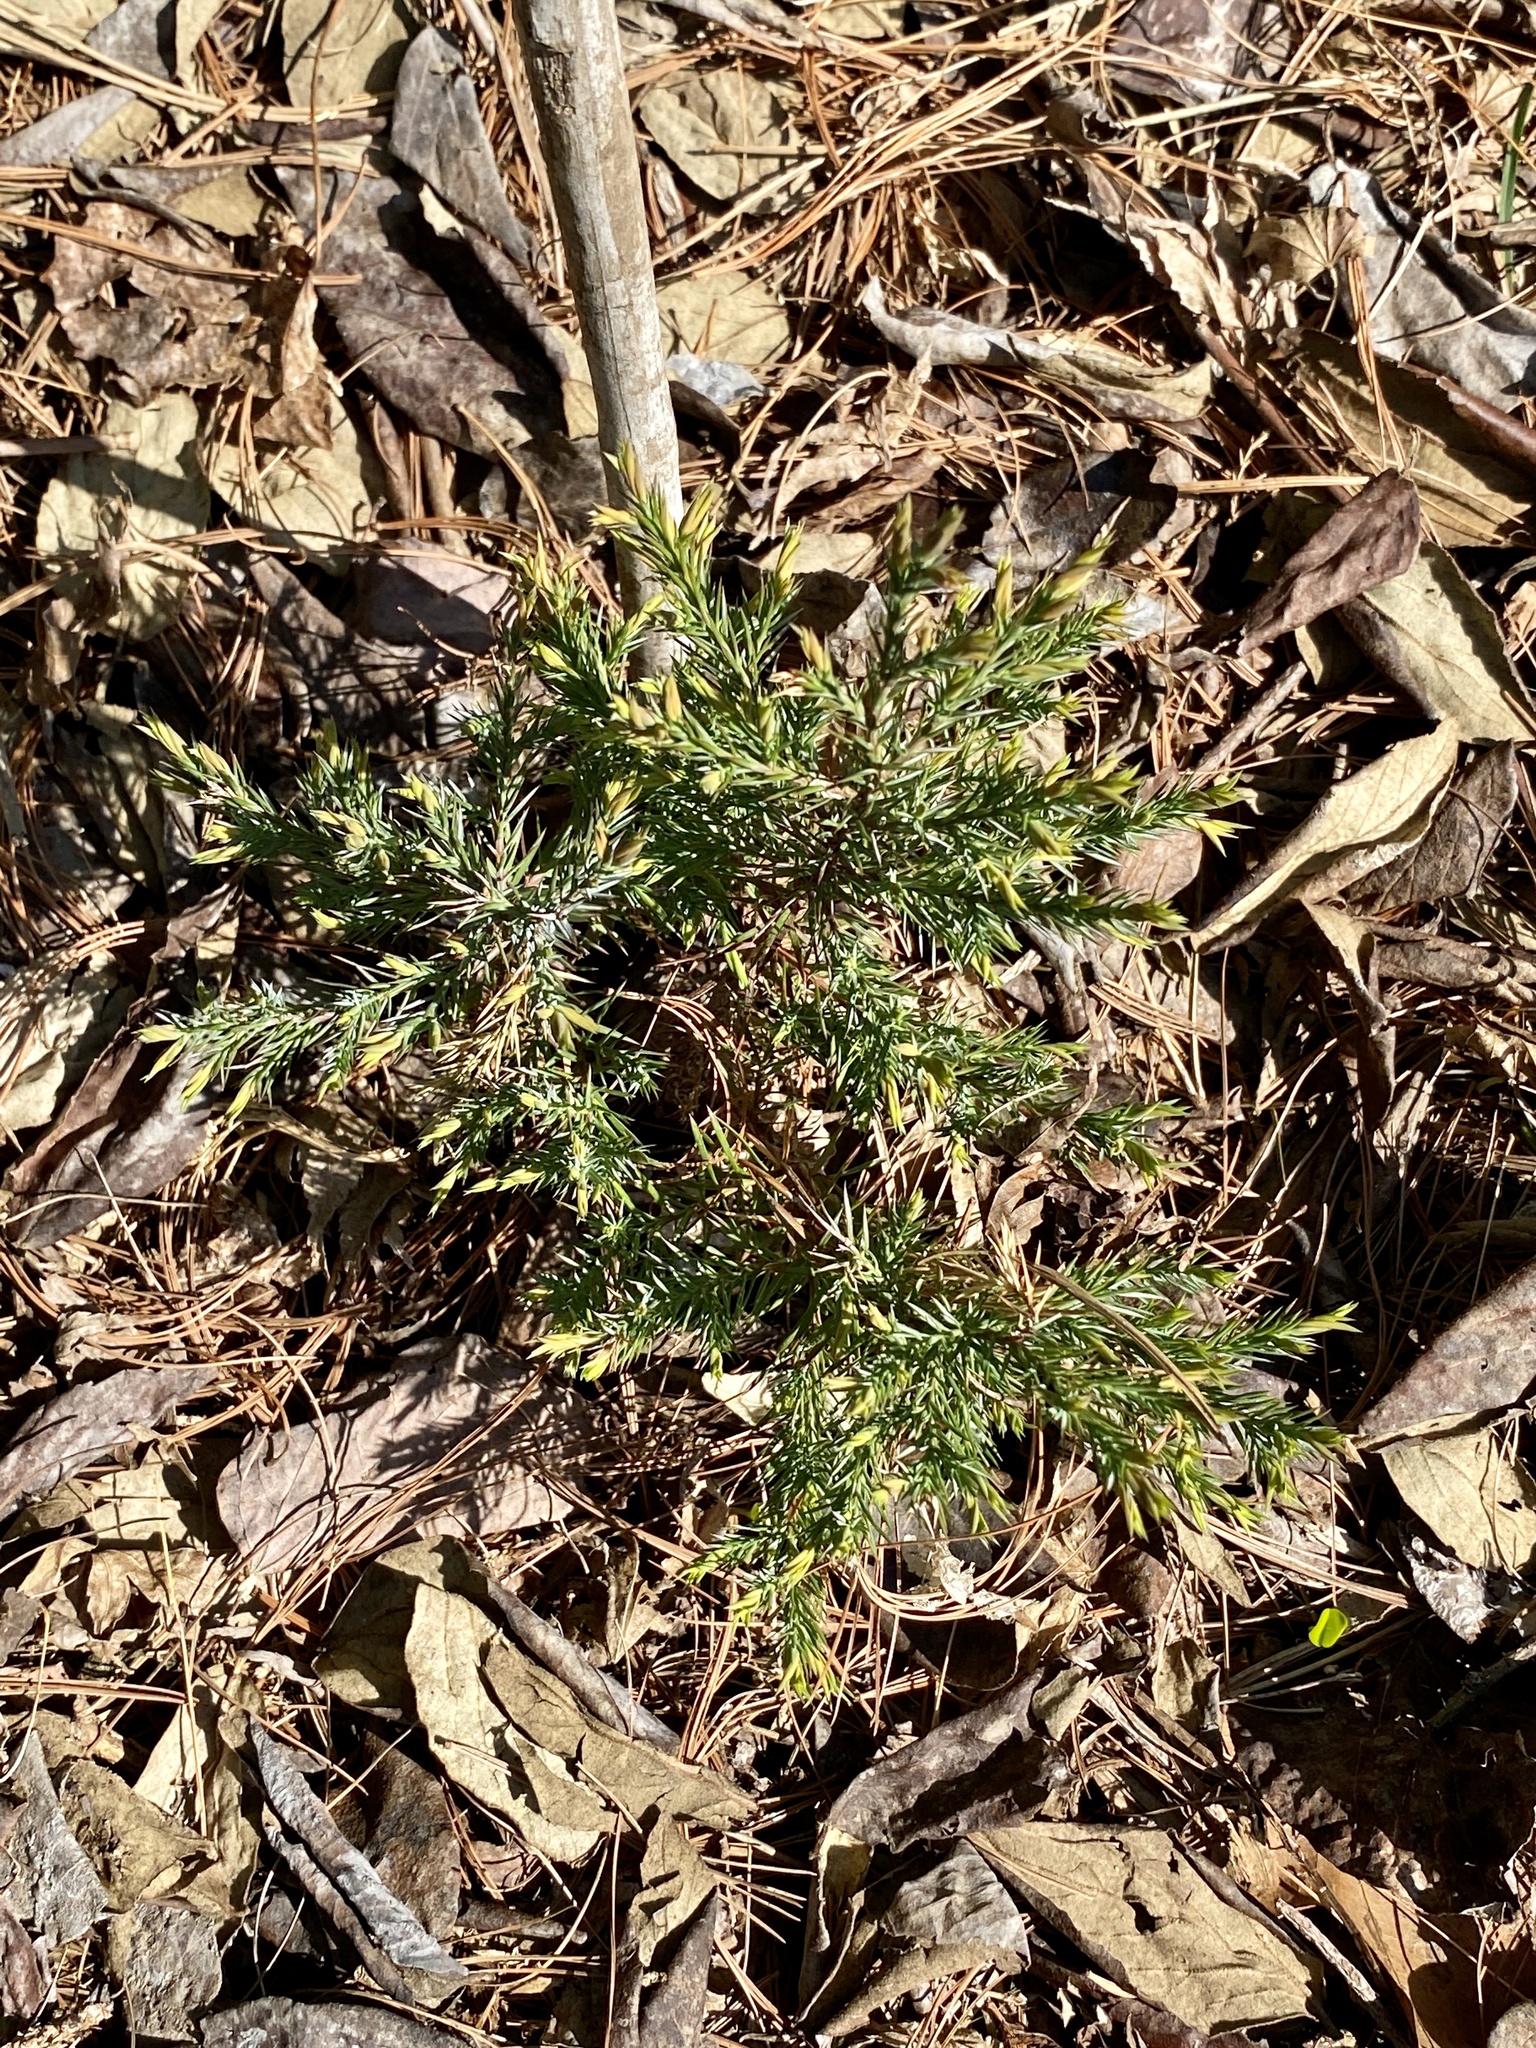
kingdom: Plantae
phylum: Tracheophyta
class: Pinopsida
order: Pinales
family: Cupressaceae
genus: Juniperus
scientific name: Juniperus virginiana
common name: Red juniper
